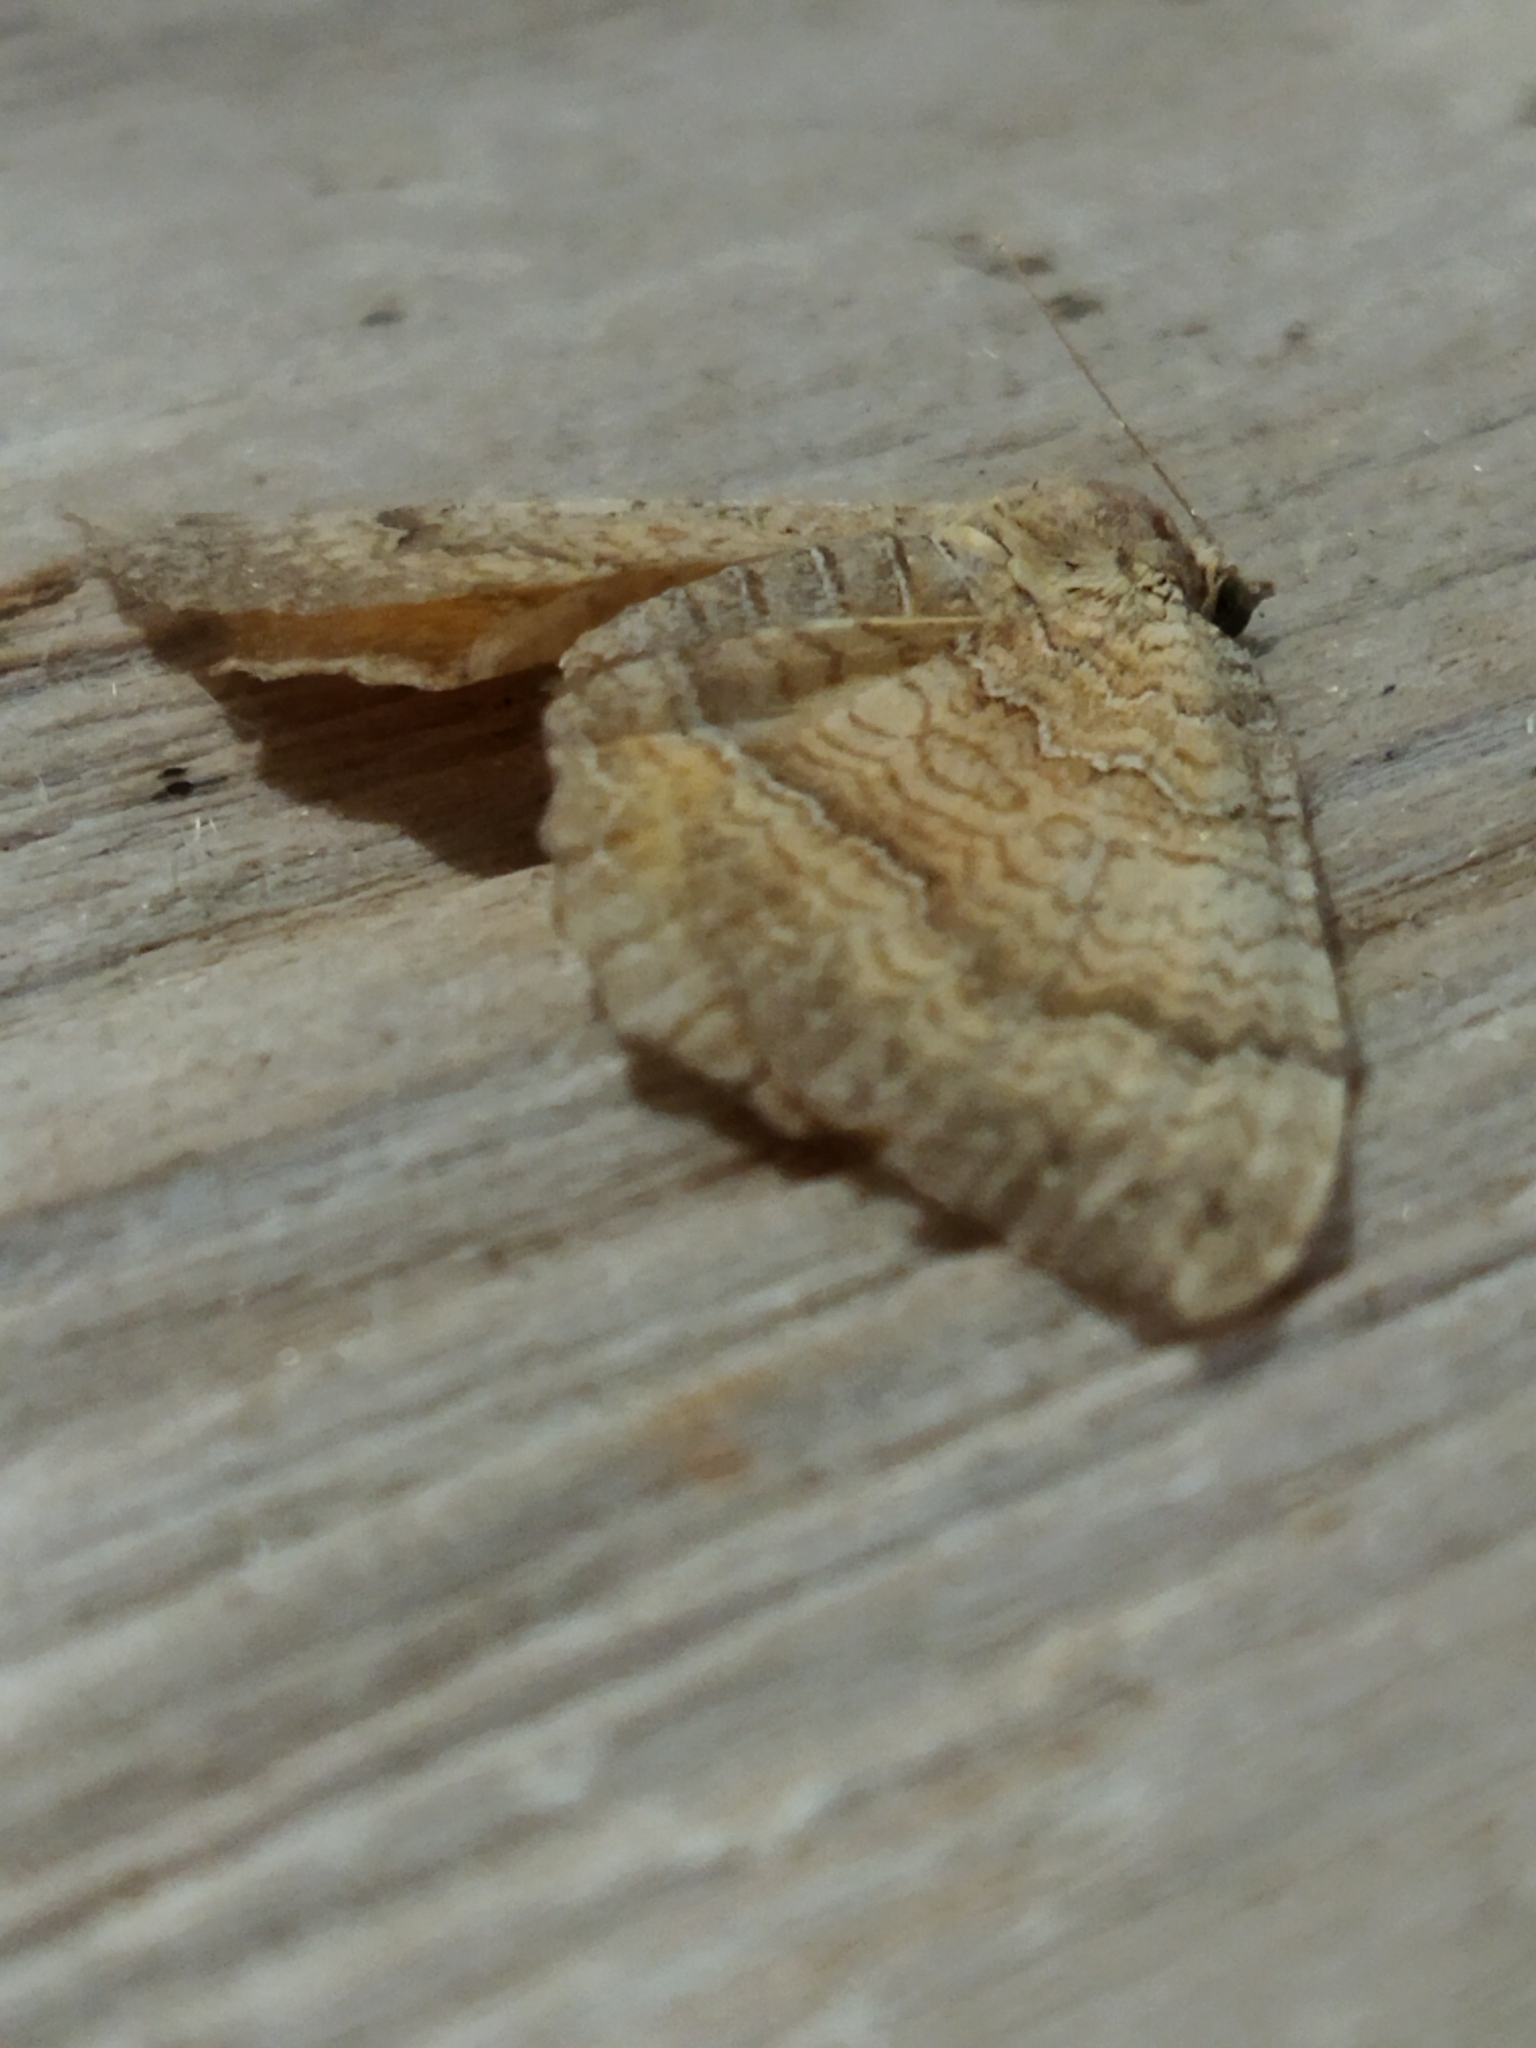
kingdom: Animalia
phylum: Arthropoda
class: Insecta
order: Lepidoptera
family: Geometridae
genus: Camptogramma
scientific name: Camptogramma bilineata
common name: Yellow shell
